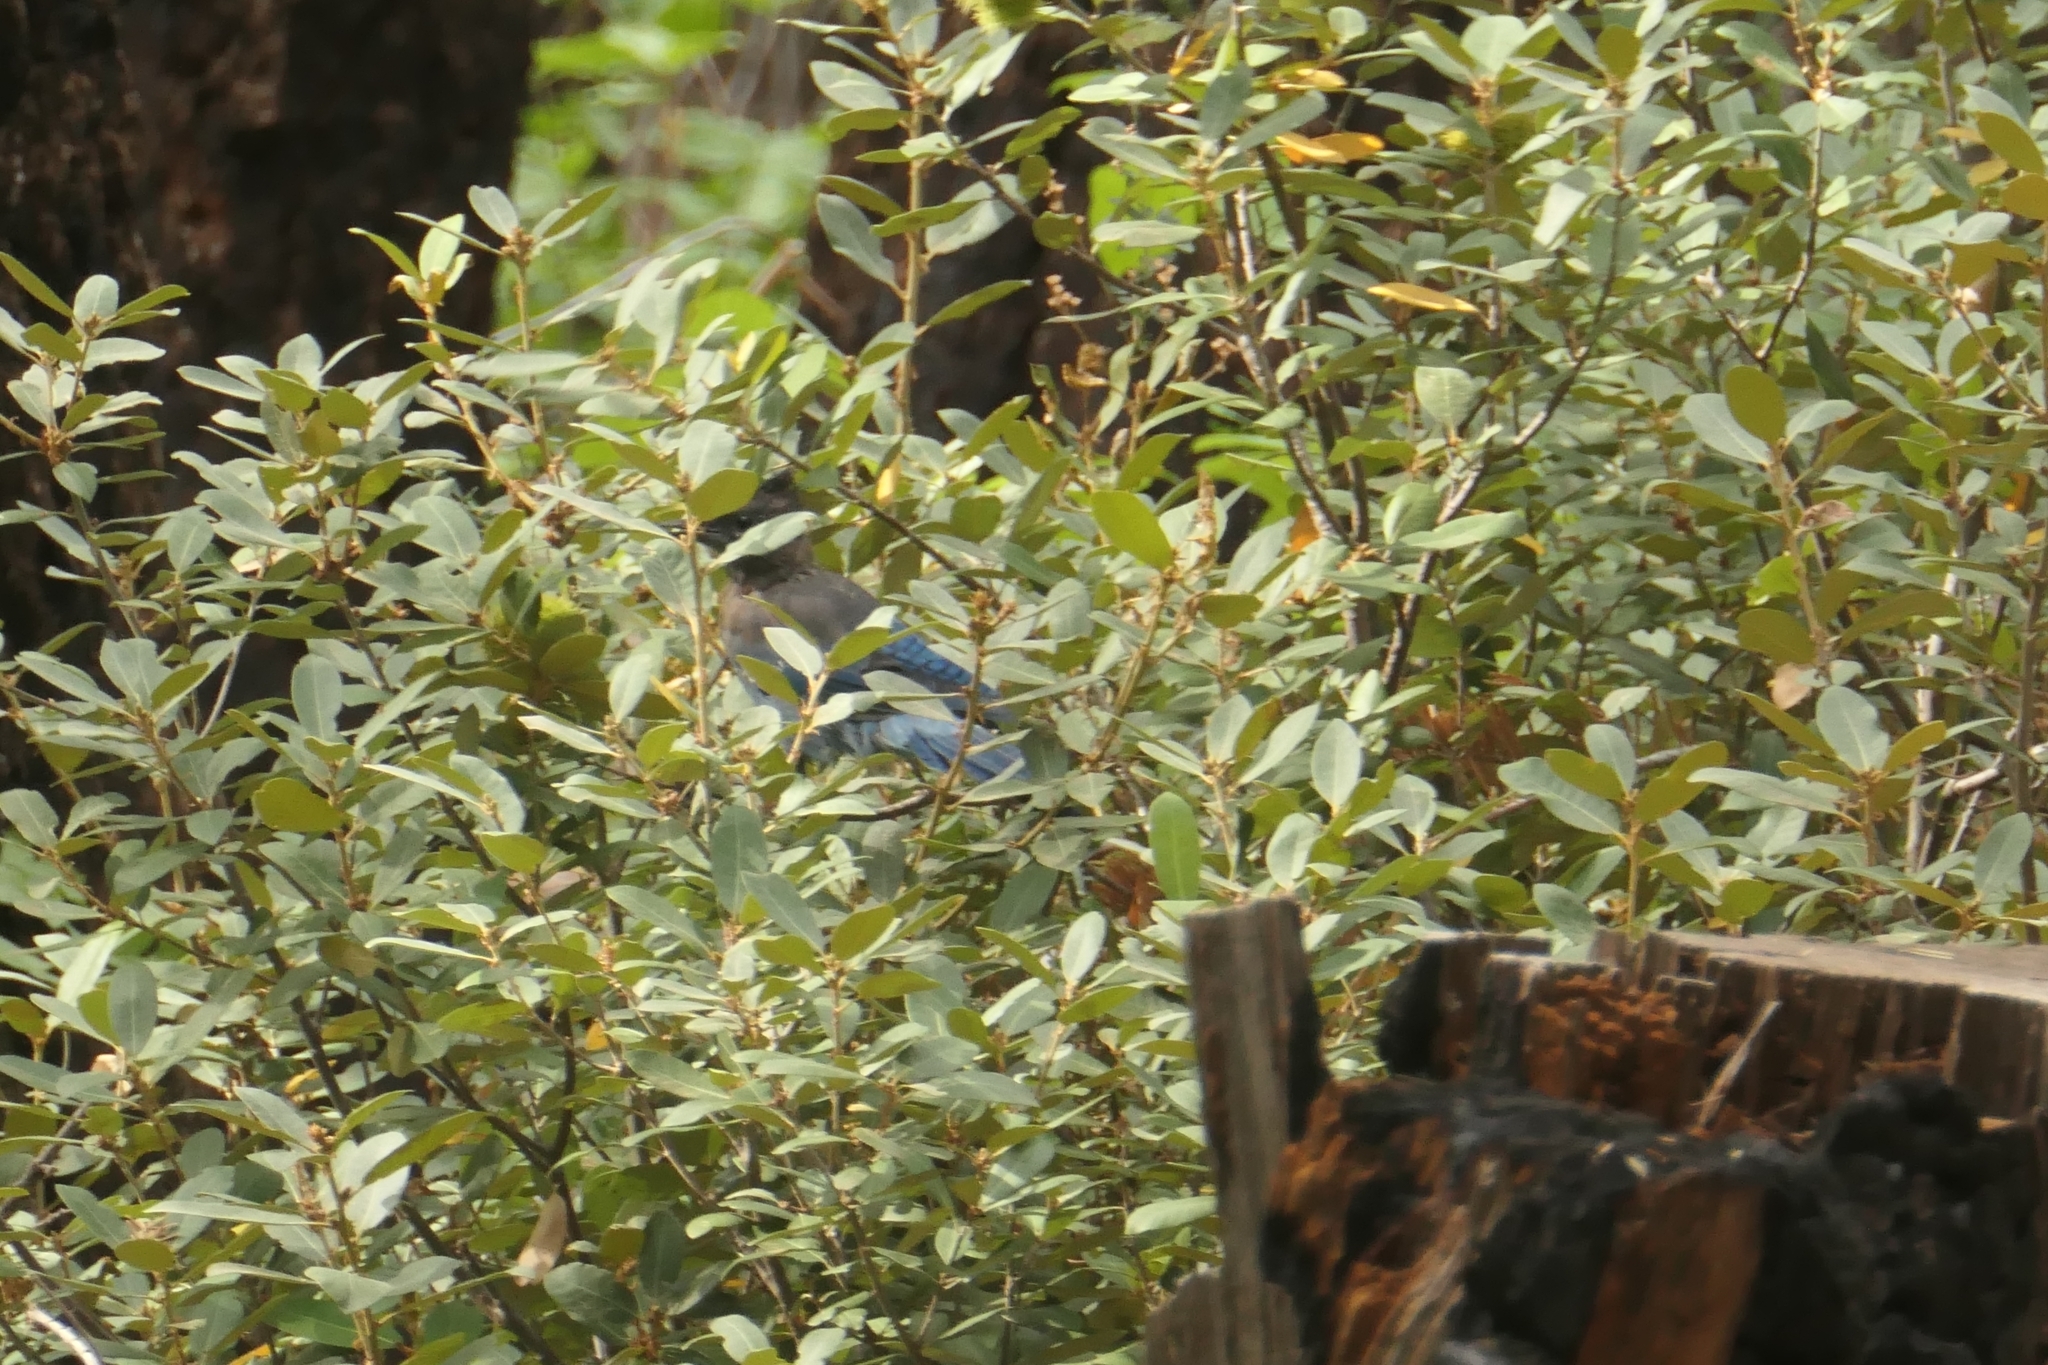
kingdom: Animalia
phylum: Chordata
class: Aves
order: Passeriformes
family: Corvidae
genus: Cyanocitta
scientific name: Cyanocitta stelleri
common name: Steller's jay
